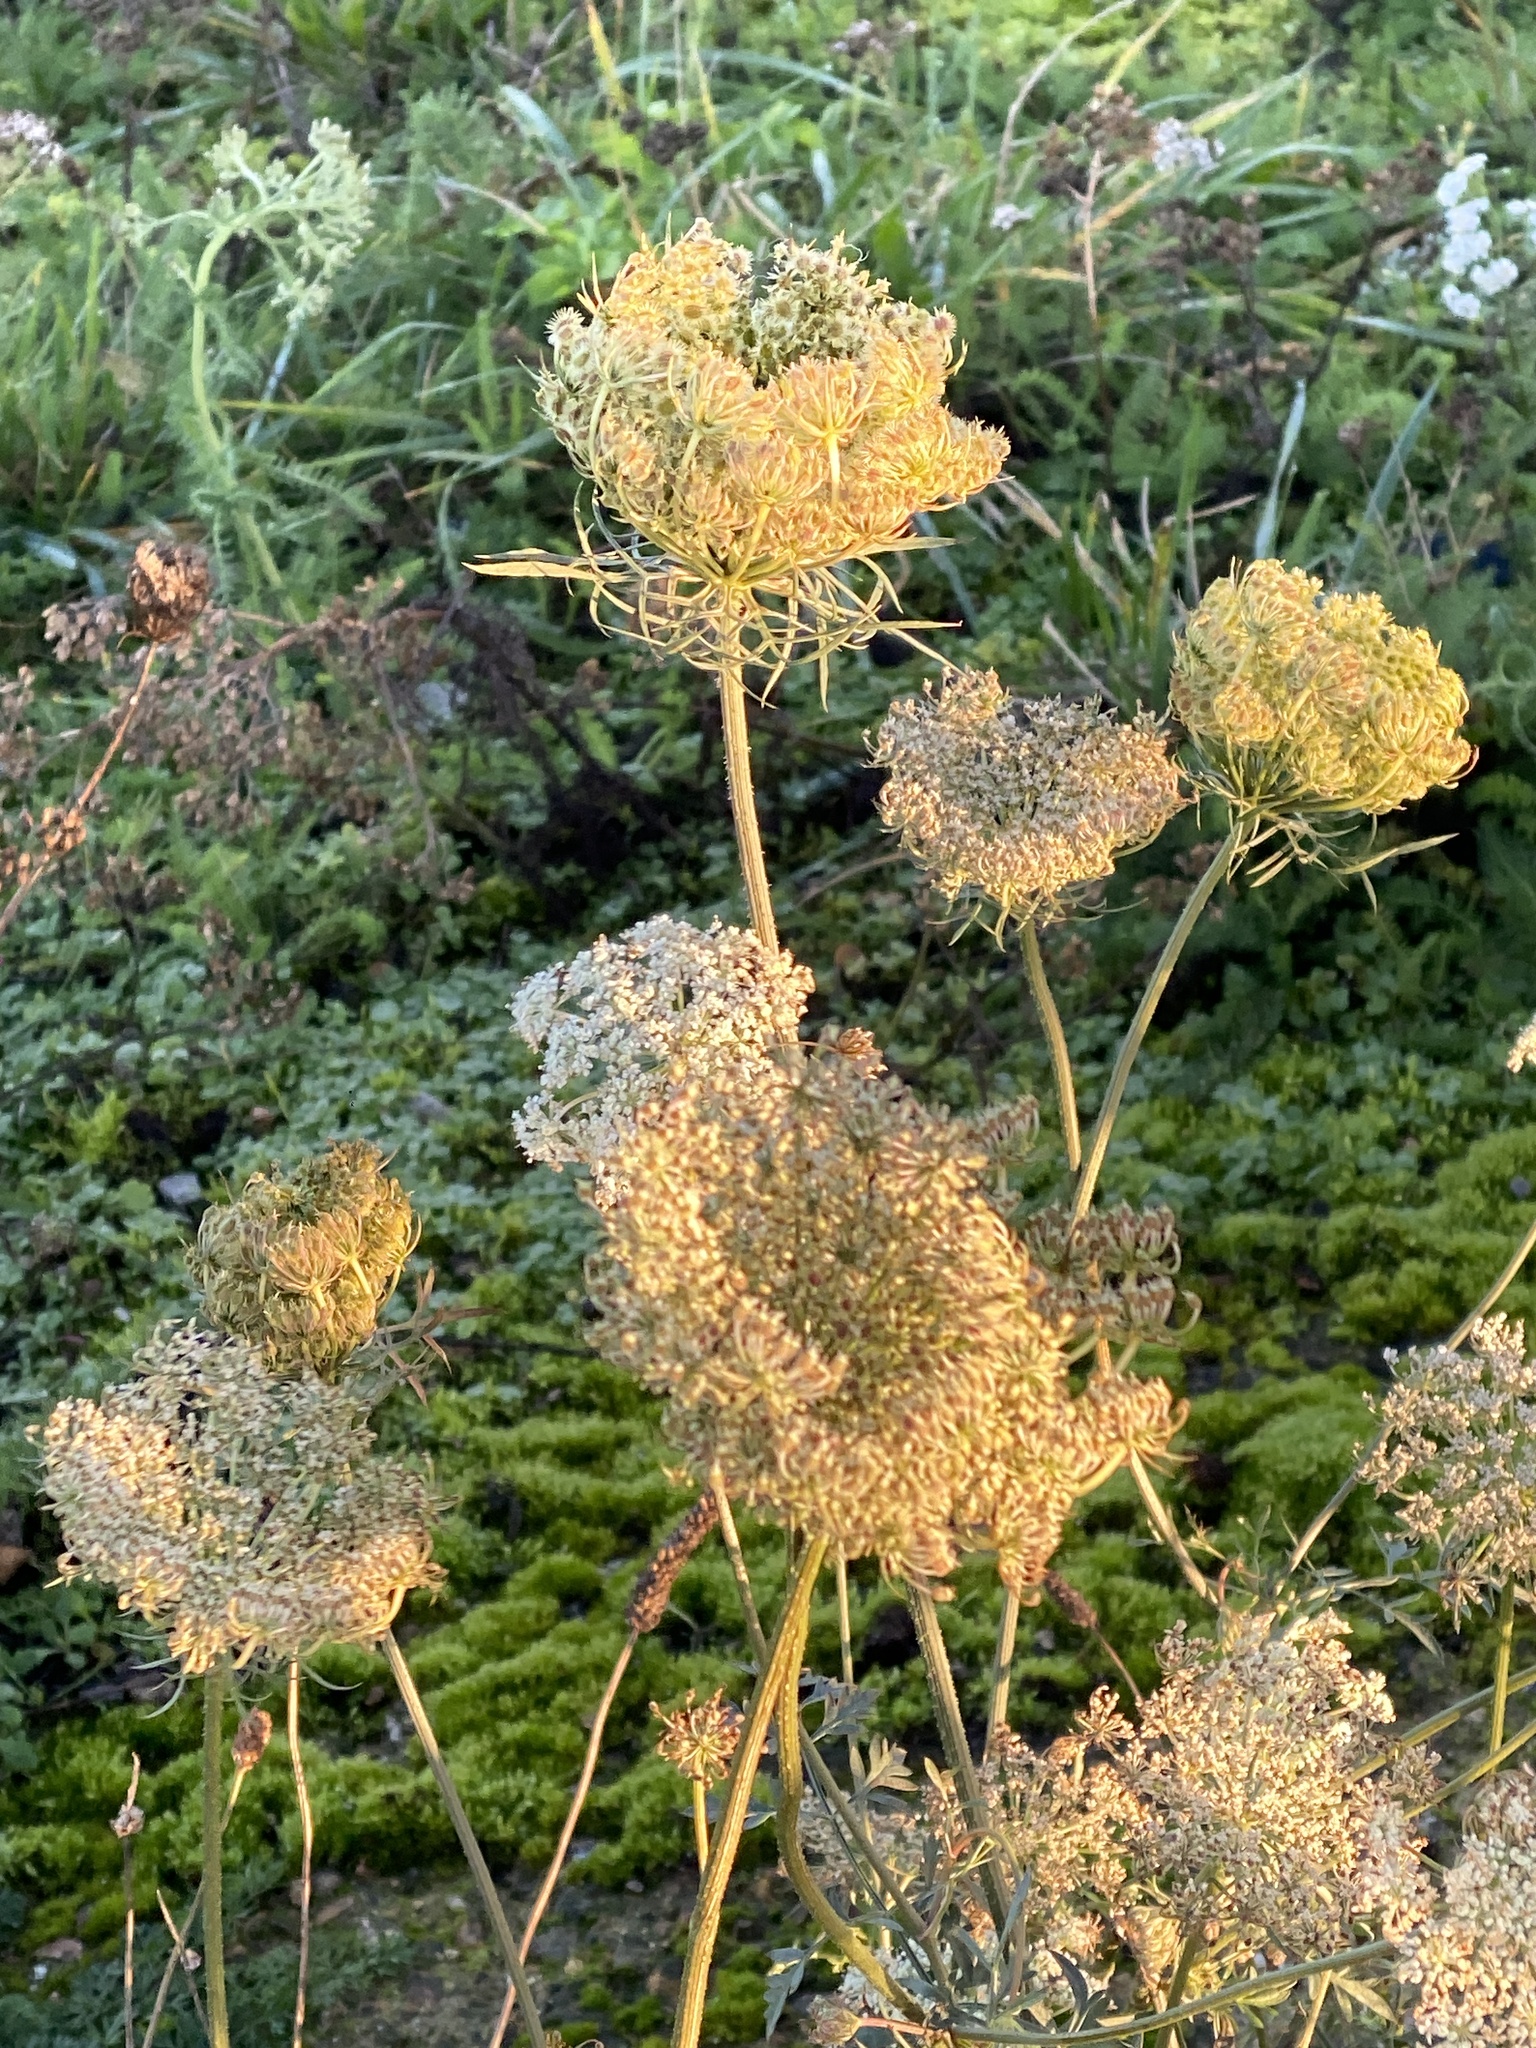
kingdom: Plantae
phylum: Tracheophyta
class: Magnoliopsida
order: Apiales
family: Apiaceae
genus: Daucus
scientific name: Daucus carota
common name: Wild carrot
